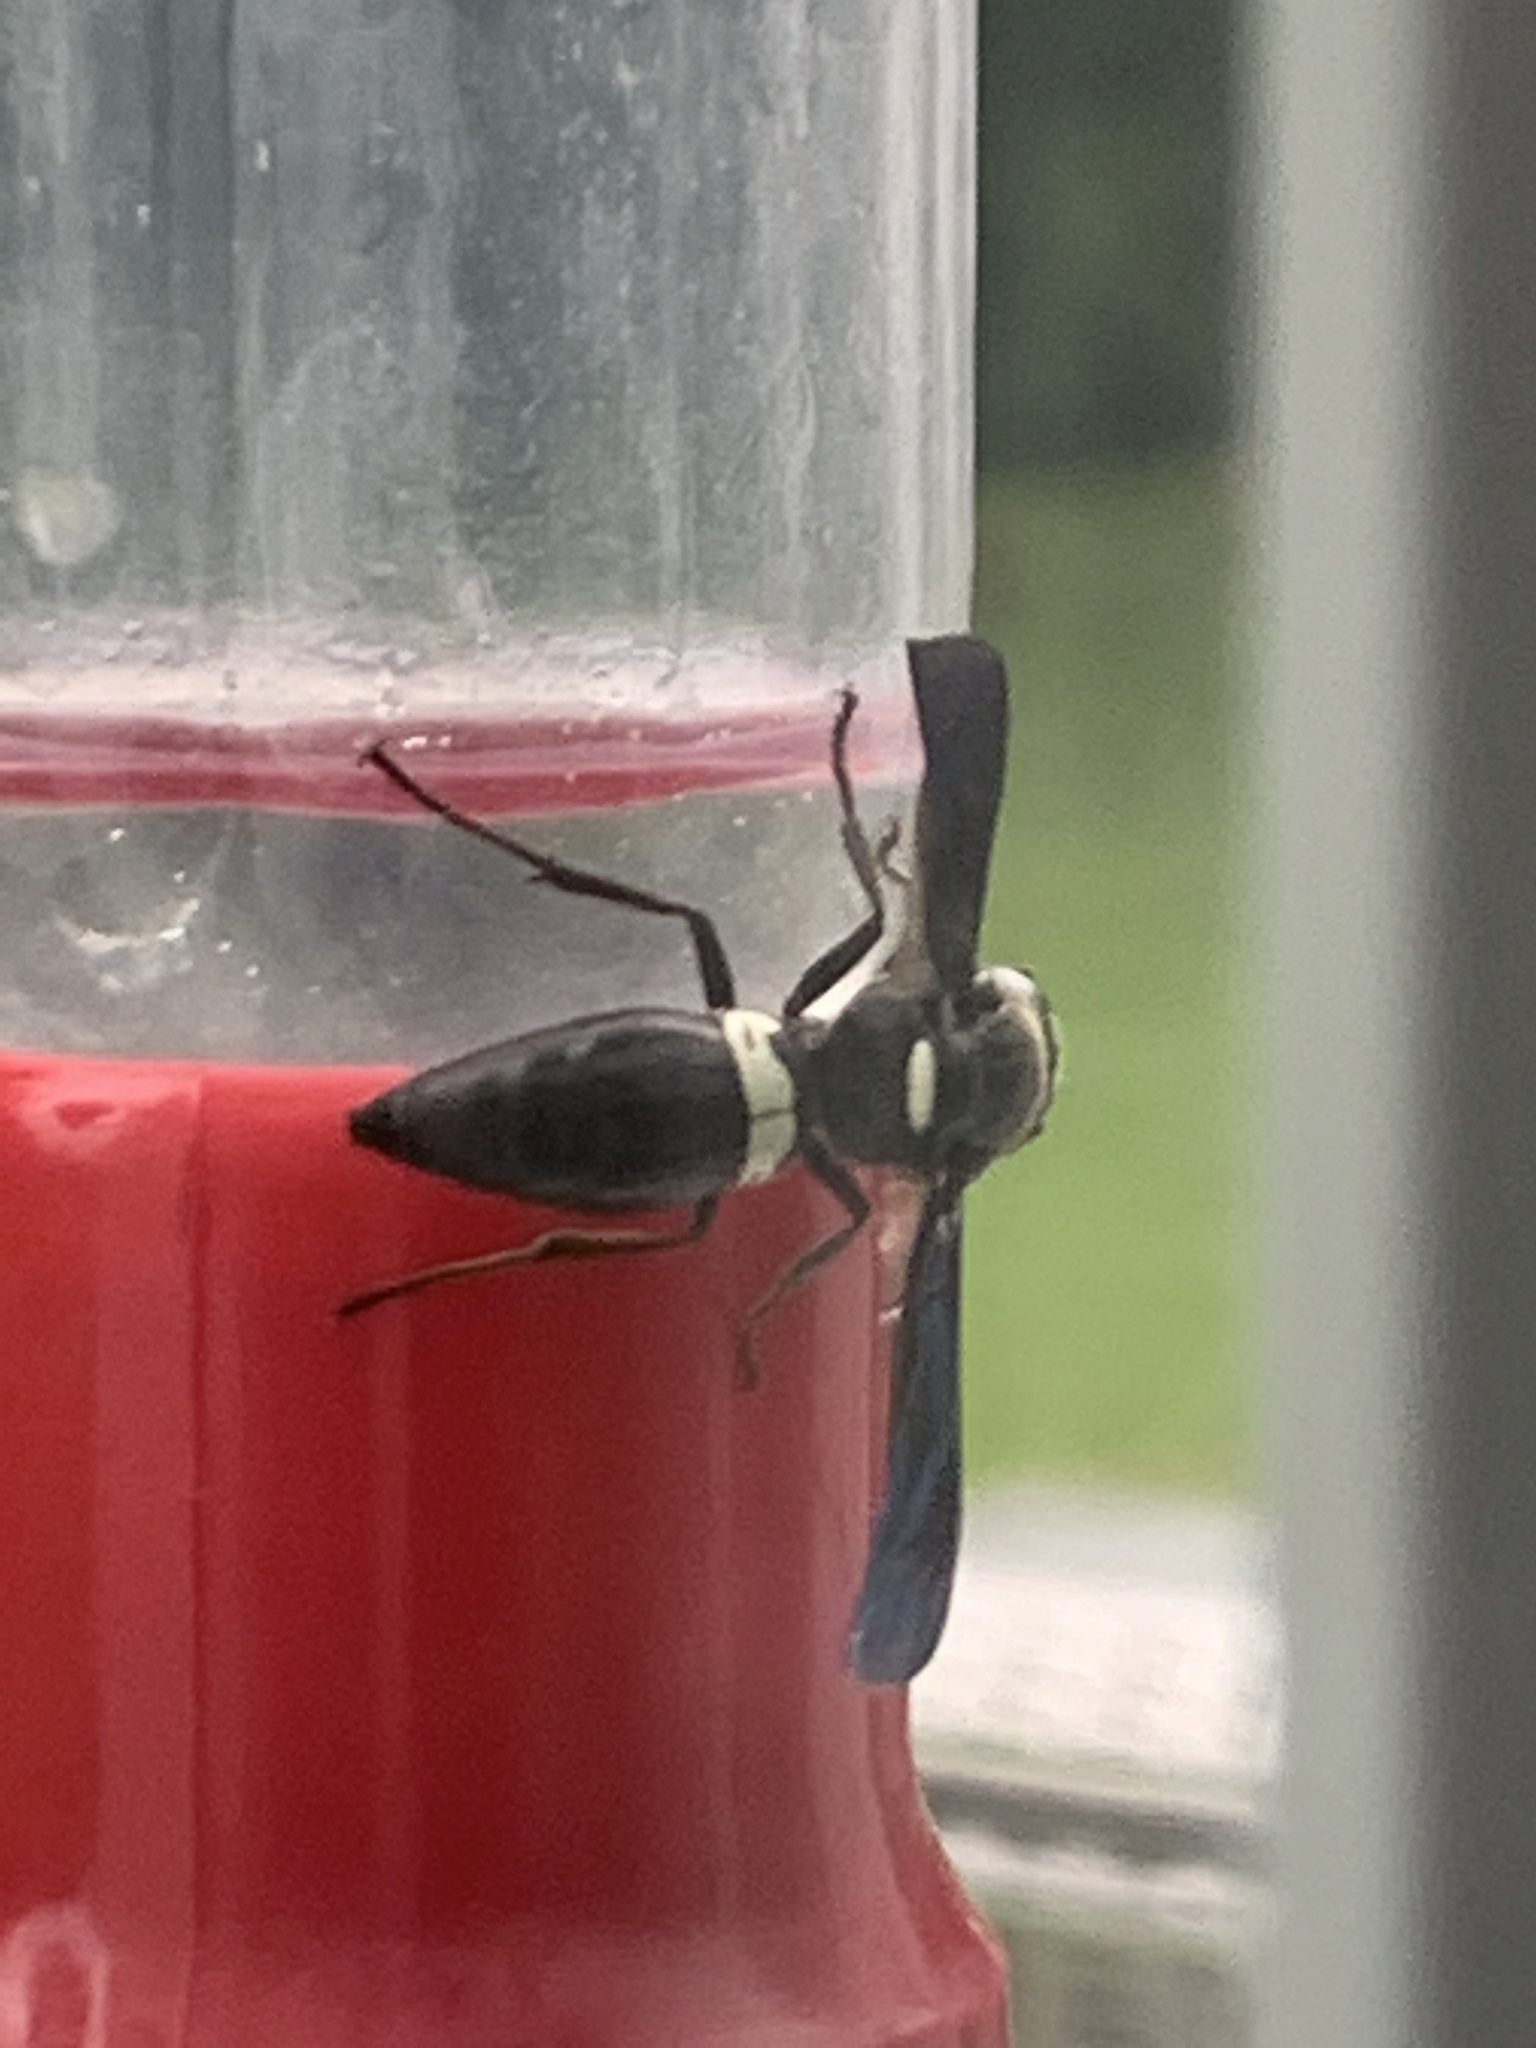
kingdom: Animalia
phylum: Arthropoda
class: Insecta
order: Hymenoptera
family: Eumenidae
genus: Monobia
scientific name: Monobia quadridens
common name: Four-toothed mason wasp
